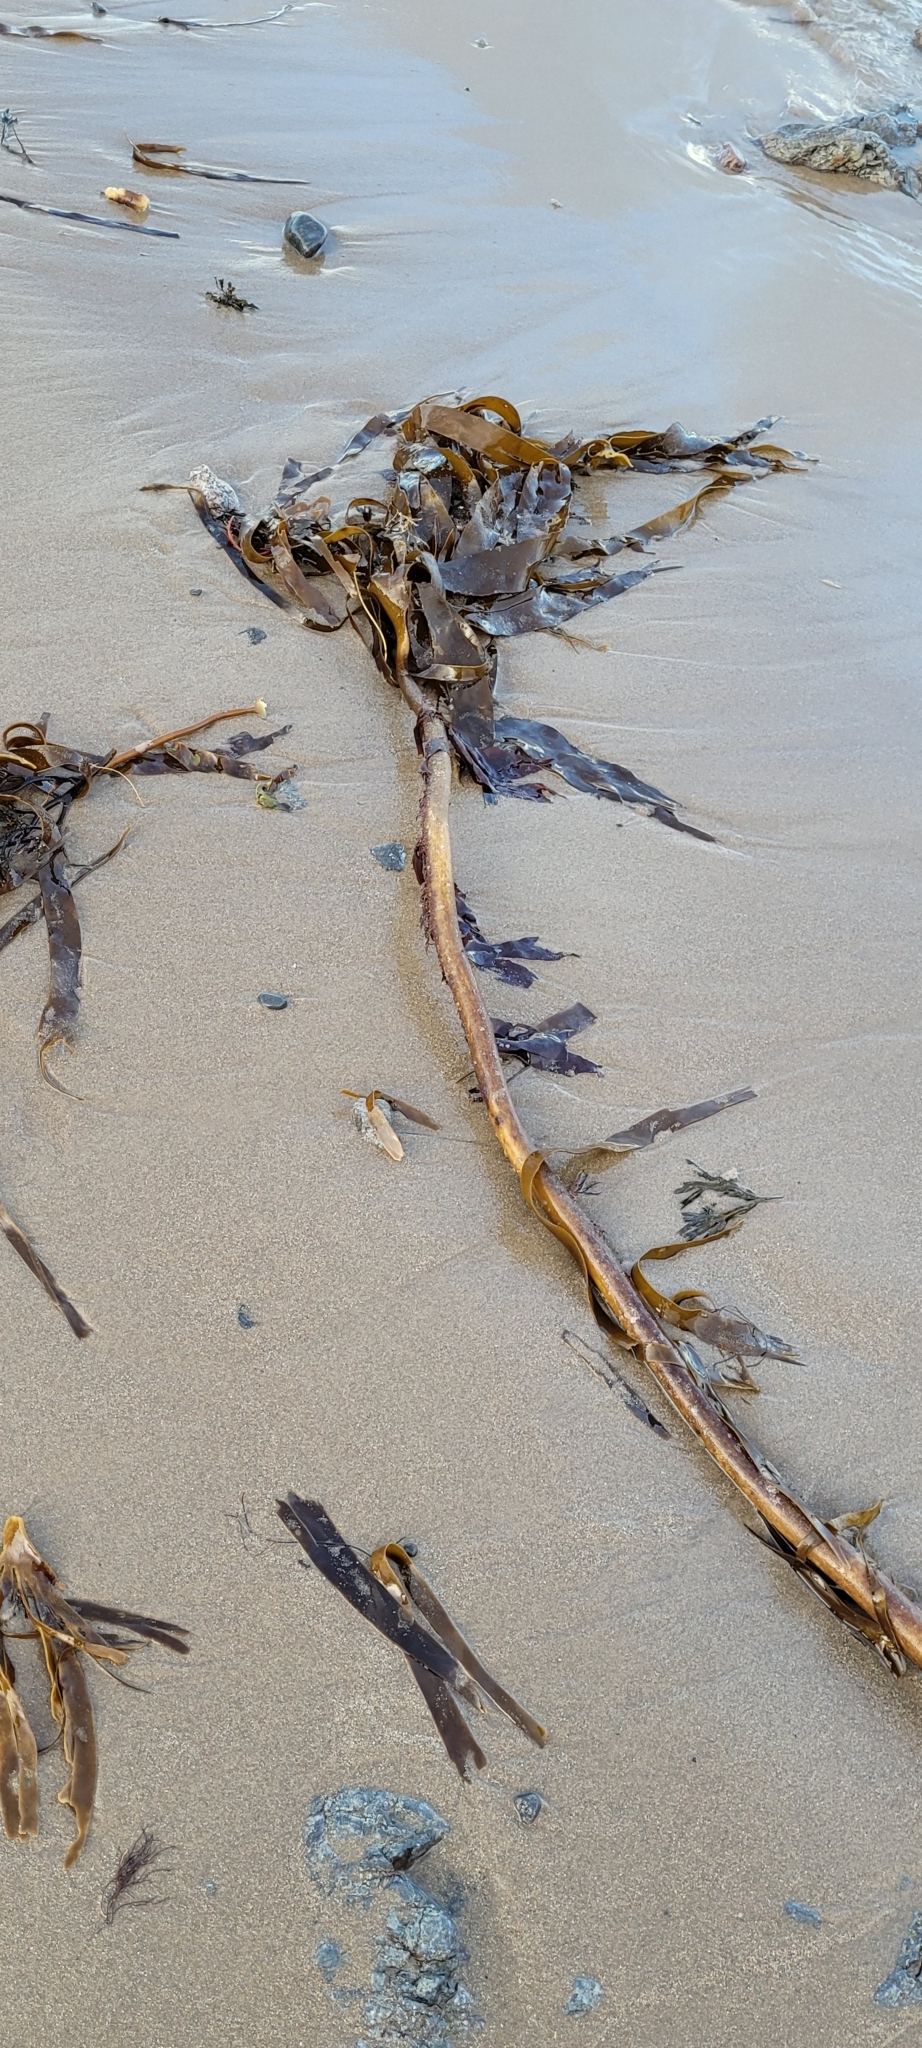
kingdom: Chromista
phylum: Ochrophyta
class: Phaeophyceae
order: Laminariales
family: Laminariaceae
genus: Laminaria
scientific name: Laminaria digitata
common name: Oarweed
